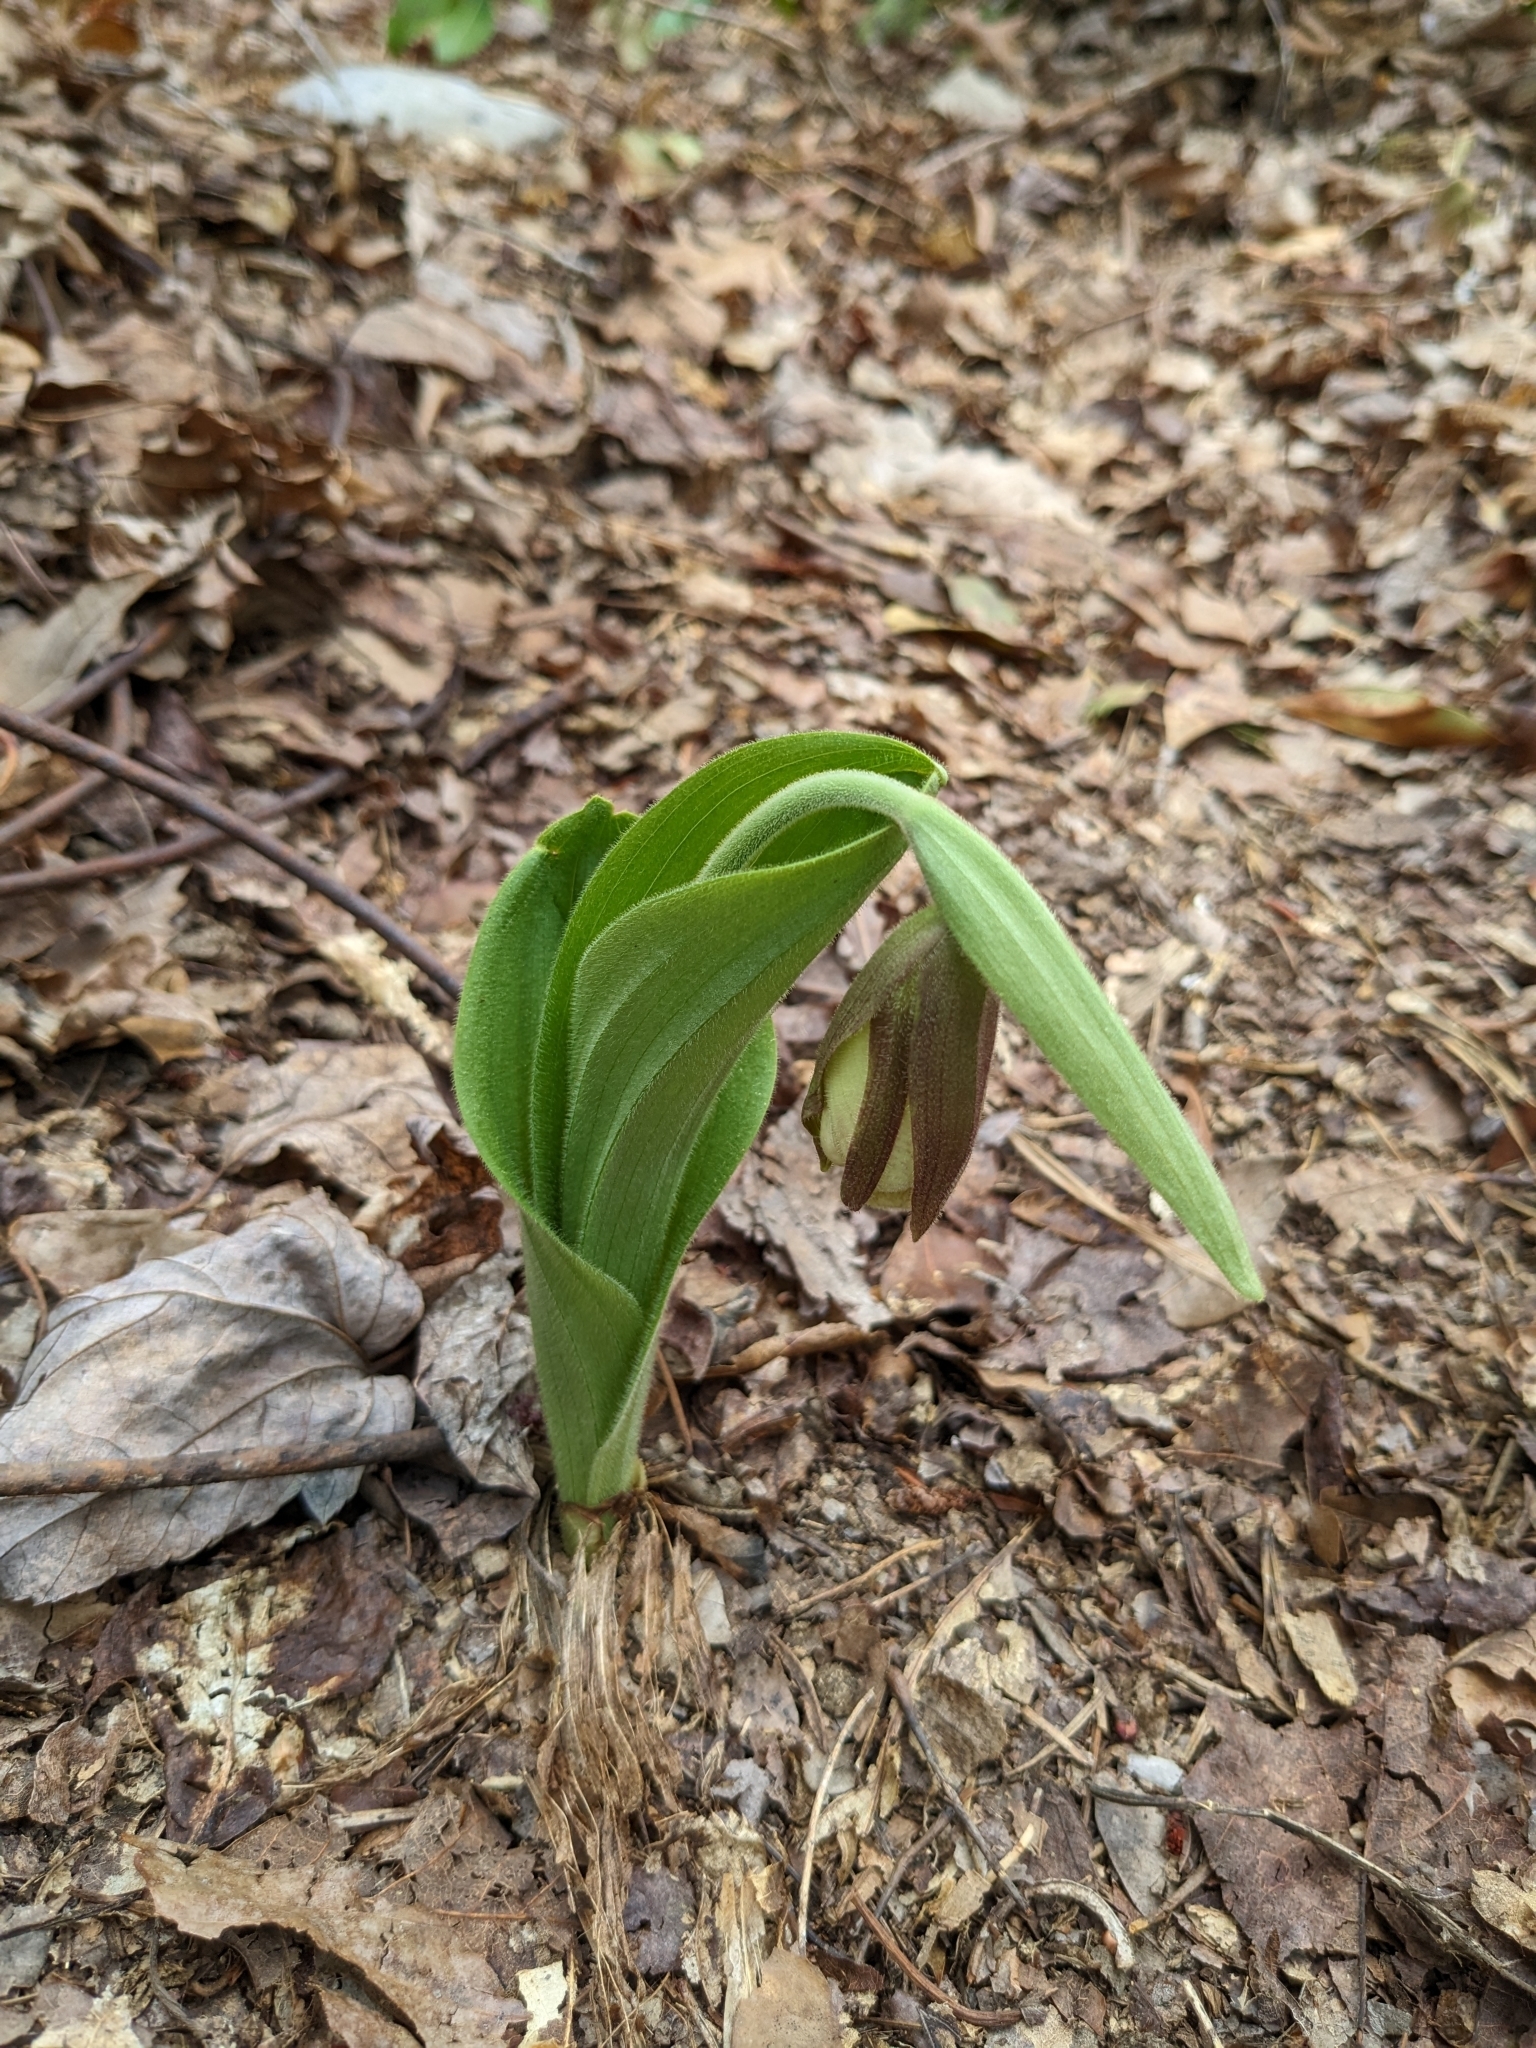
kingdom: Plantae
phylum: Tracheophyta
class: Liliopsida
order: Asparagales
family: Orchidaceae
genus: Cypripedium
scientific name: Cypripedium acaule
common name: Pink lady's-slipper
